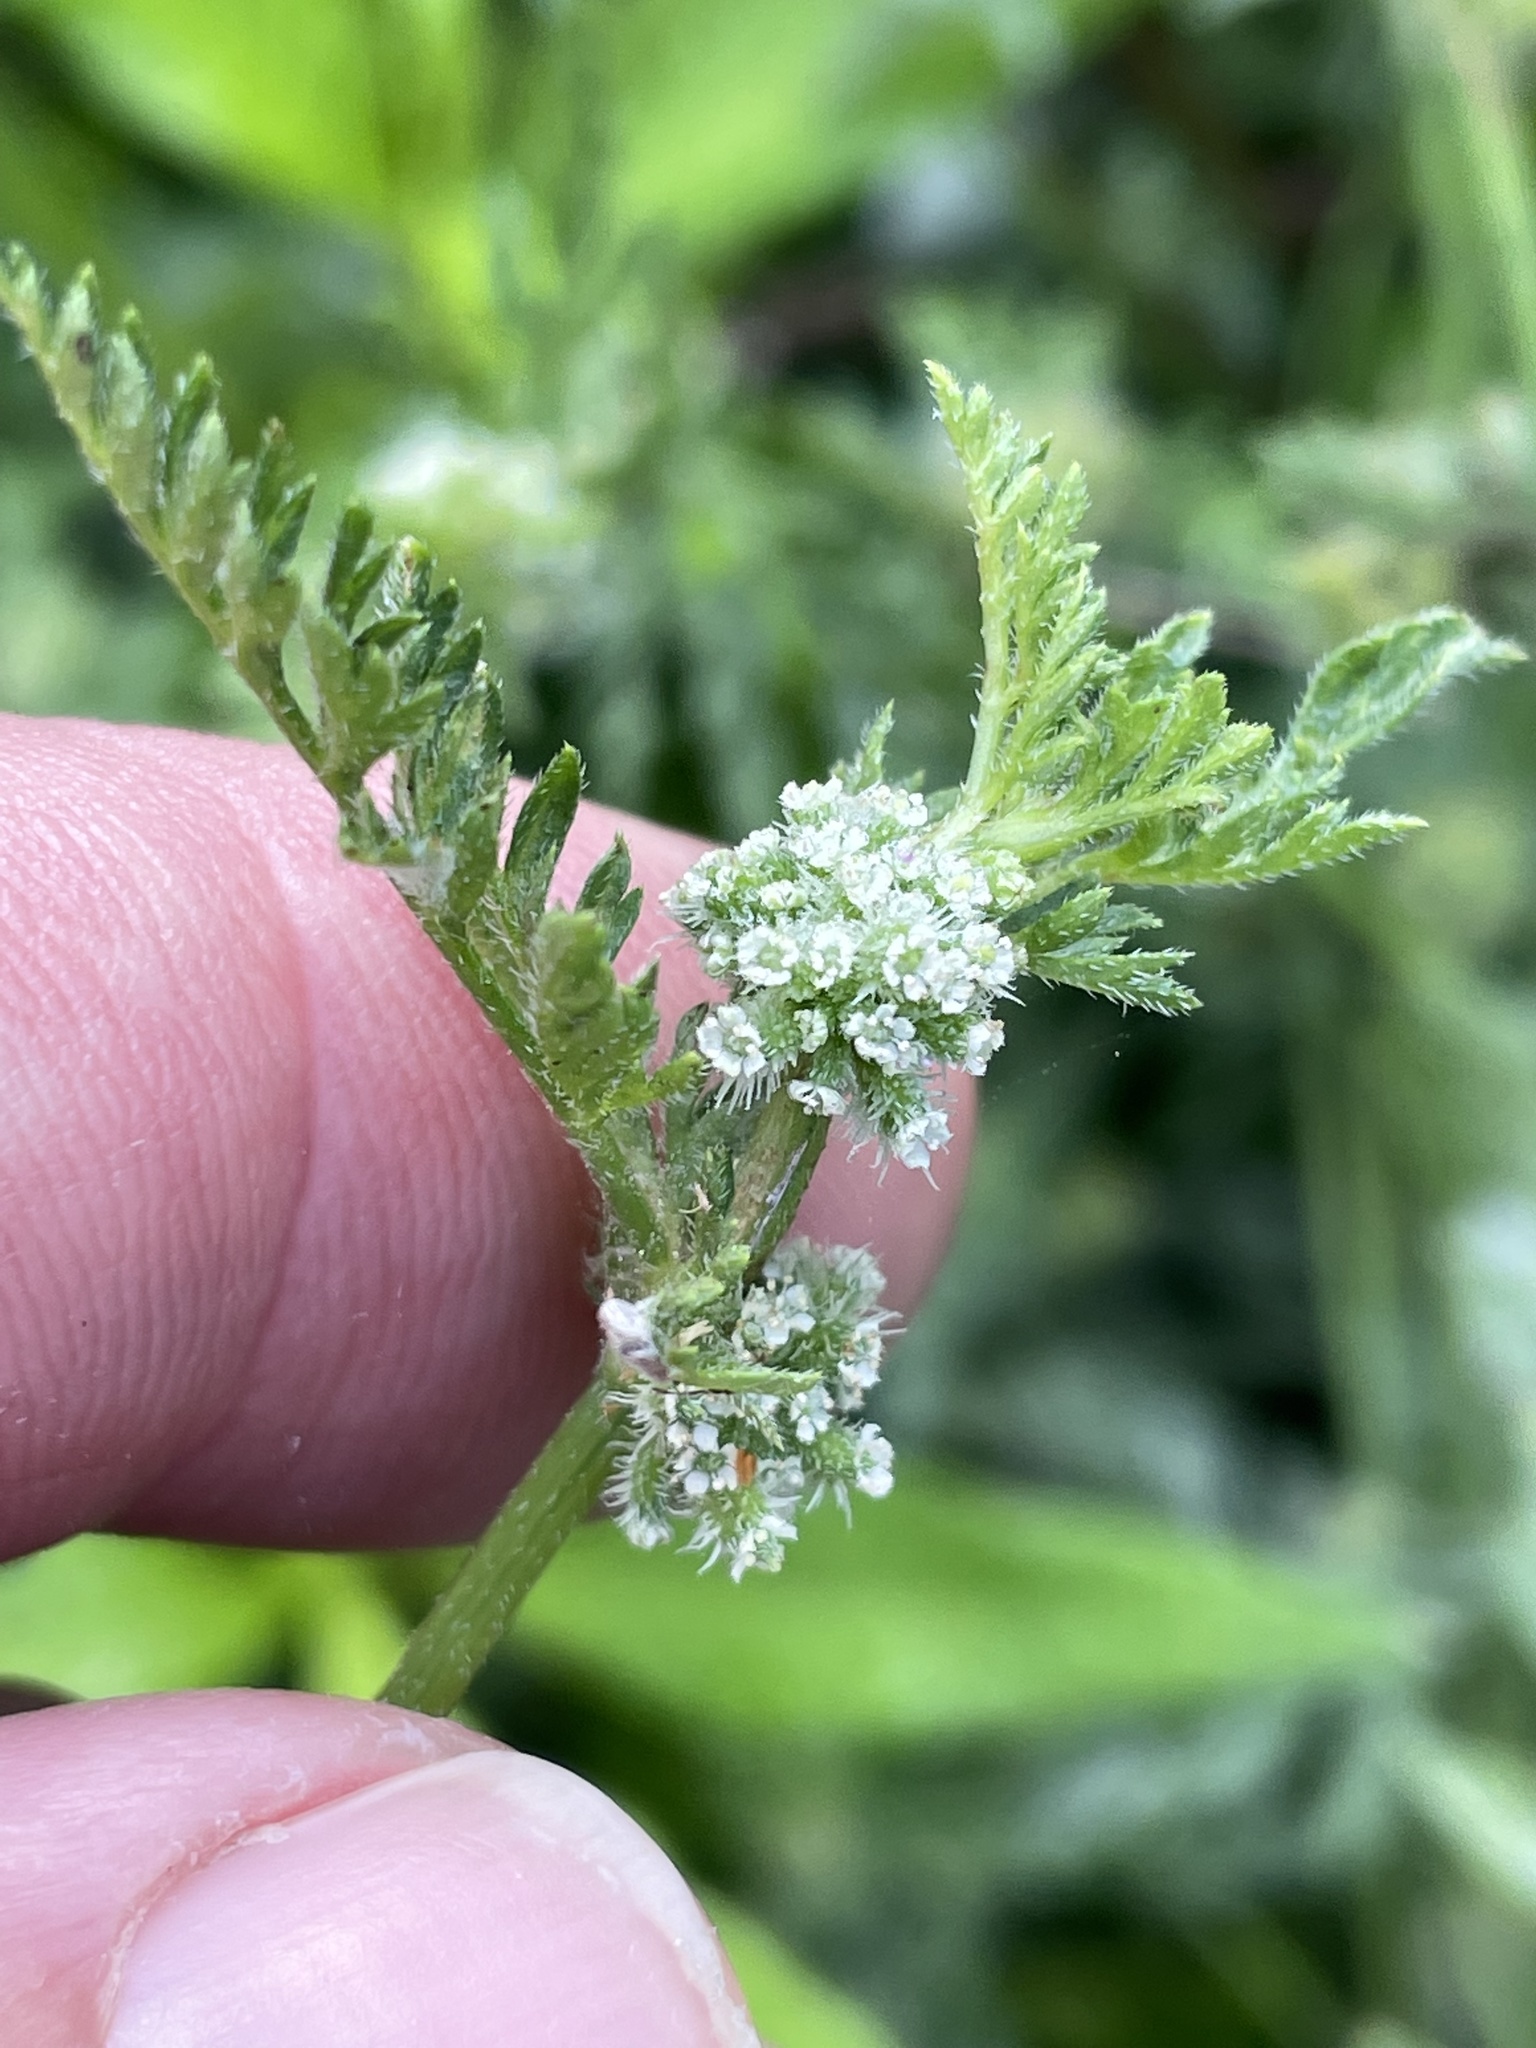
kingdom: Plantae
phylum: Tracheophyta
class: Magnoliopsida
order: Apiales
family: Apiaceae
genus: Torilis
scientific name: Torilis nodosa
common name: Knotted hedge-parsley
